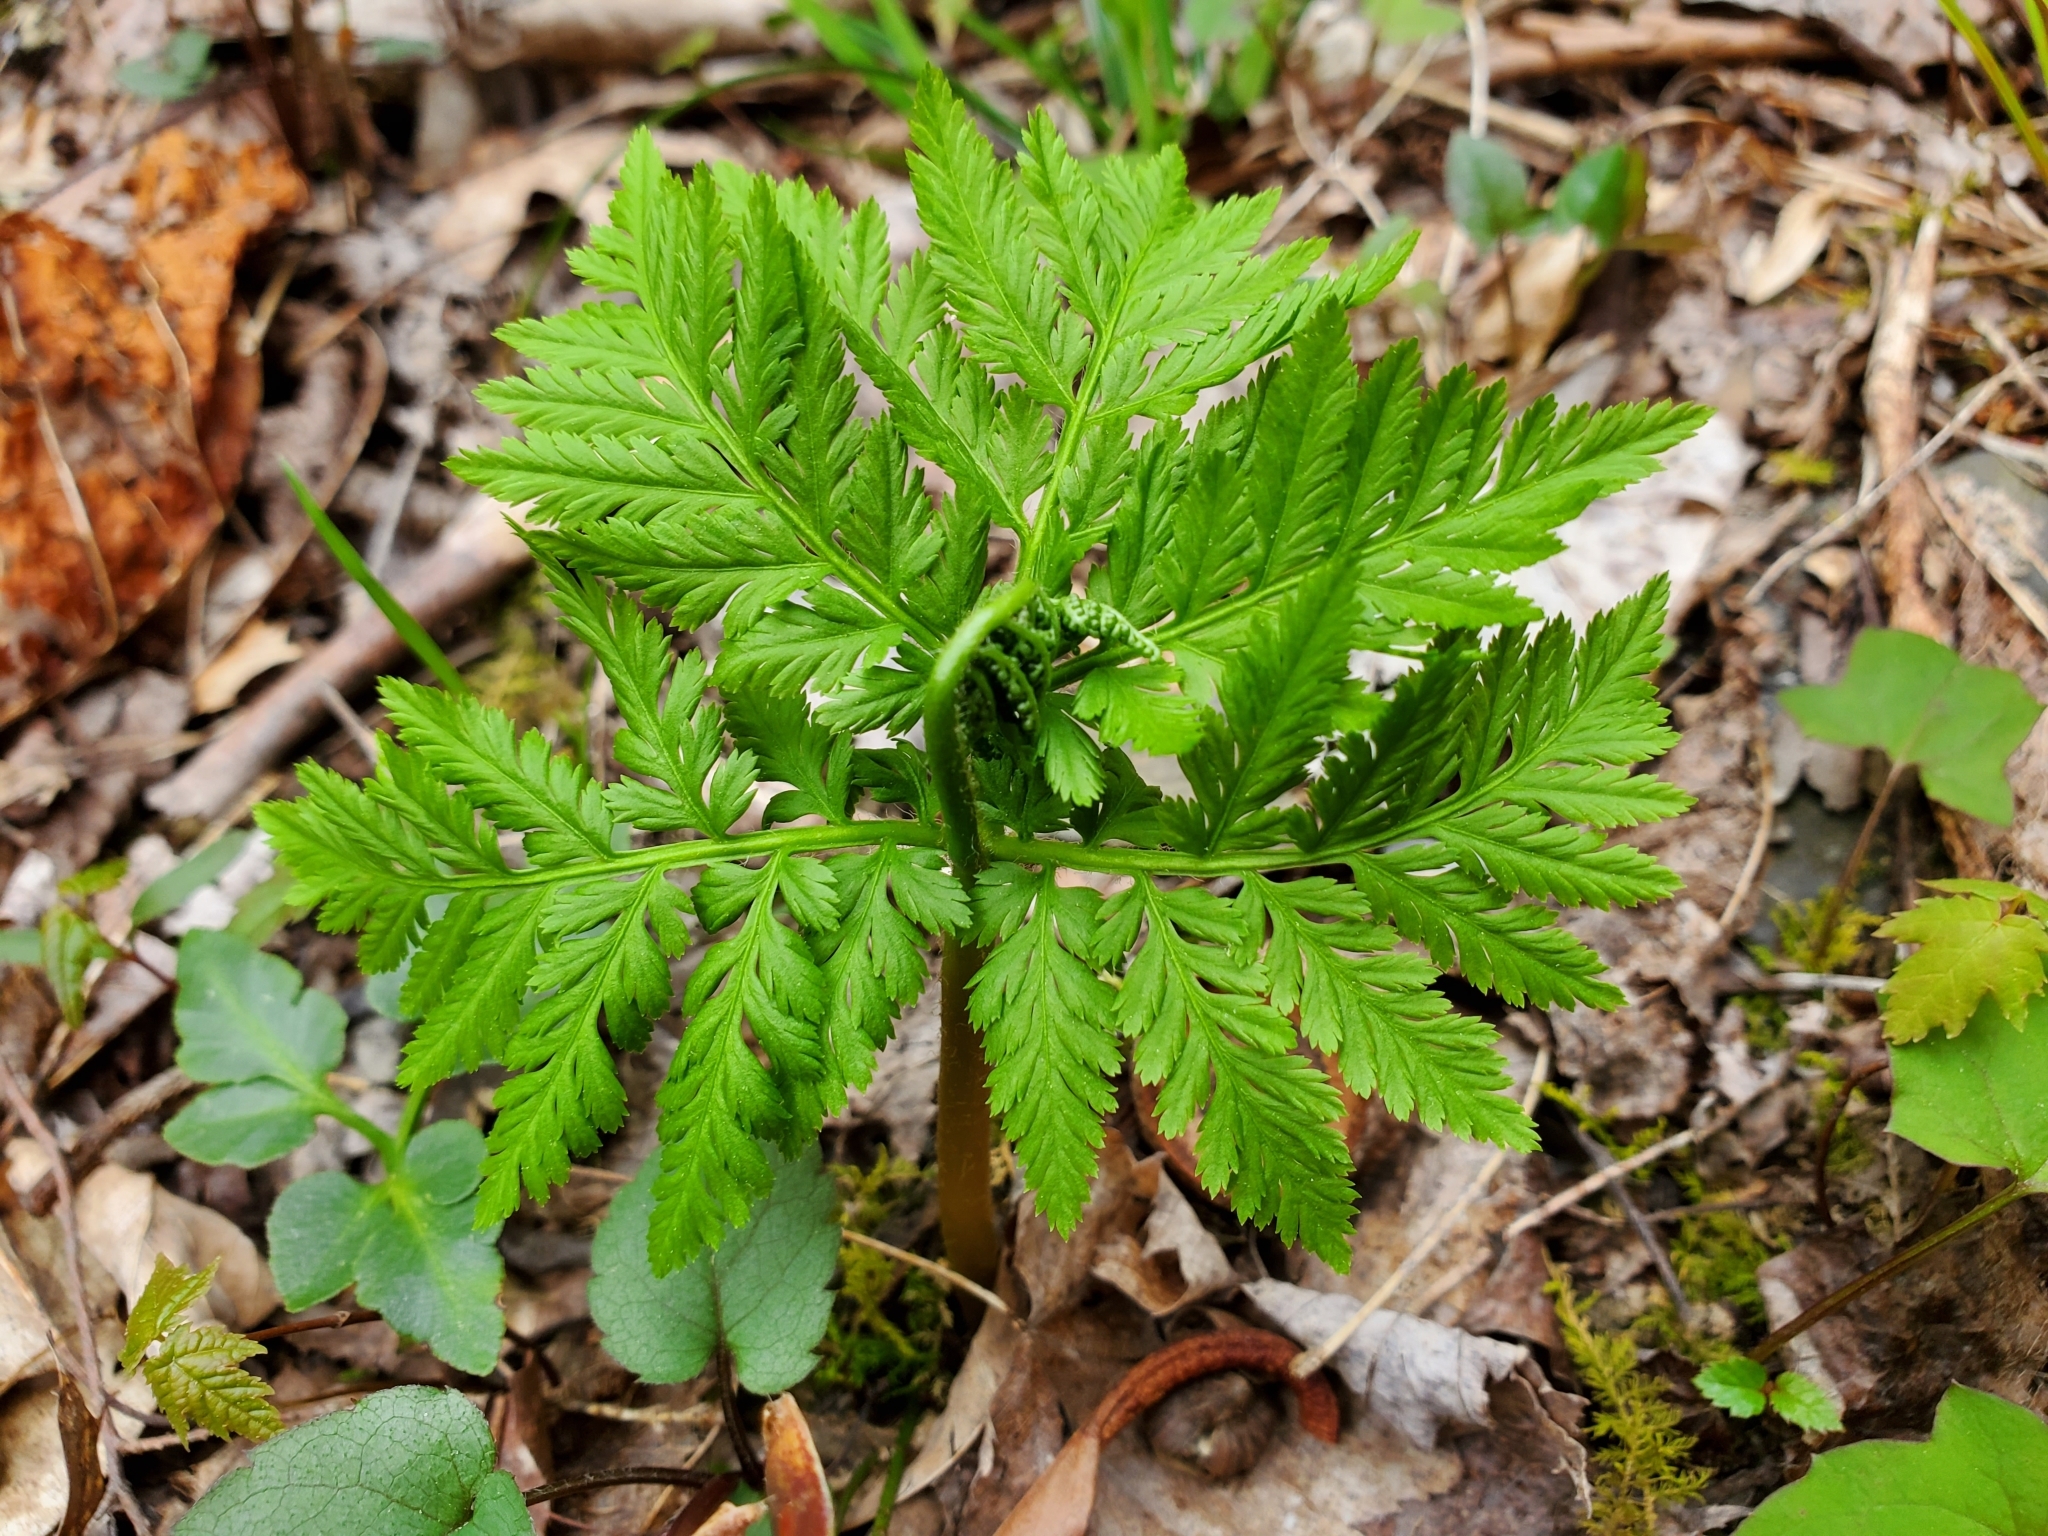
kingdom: Plantae
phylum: Tracheophyta
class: Polypodiopsida
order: Ophioglossales
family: Ophioglossaceae
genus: Botrypus
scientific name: Botrypus virginianus
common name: Common grapefern
